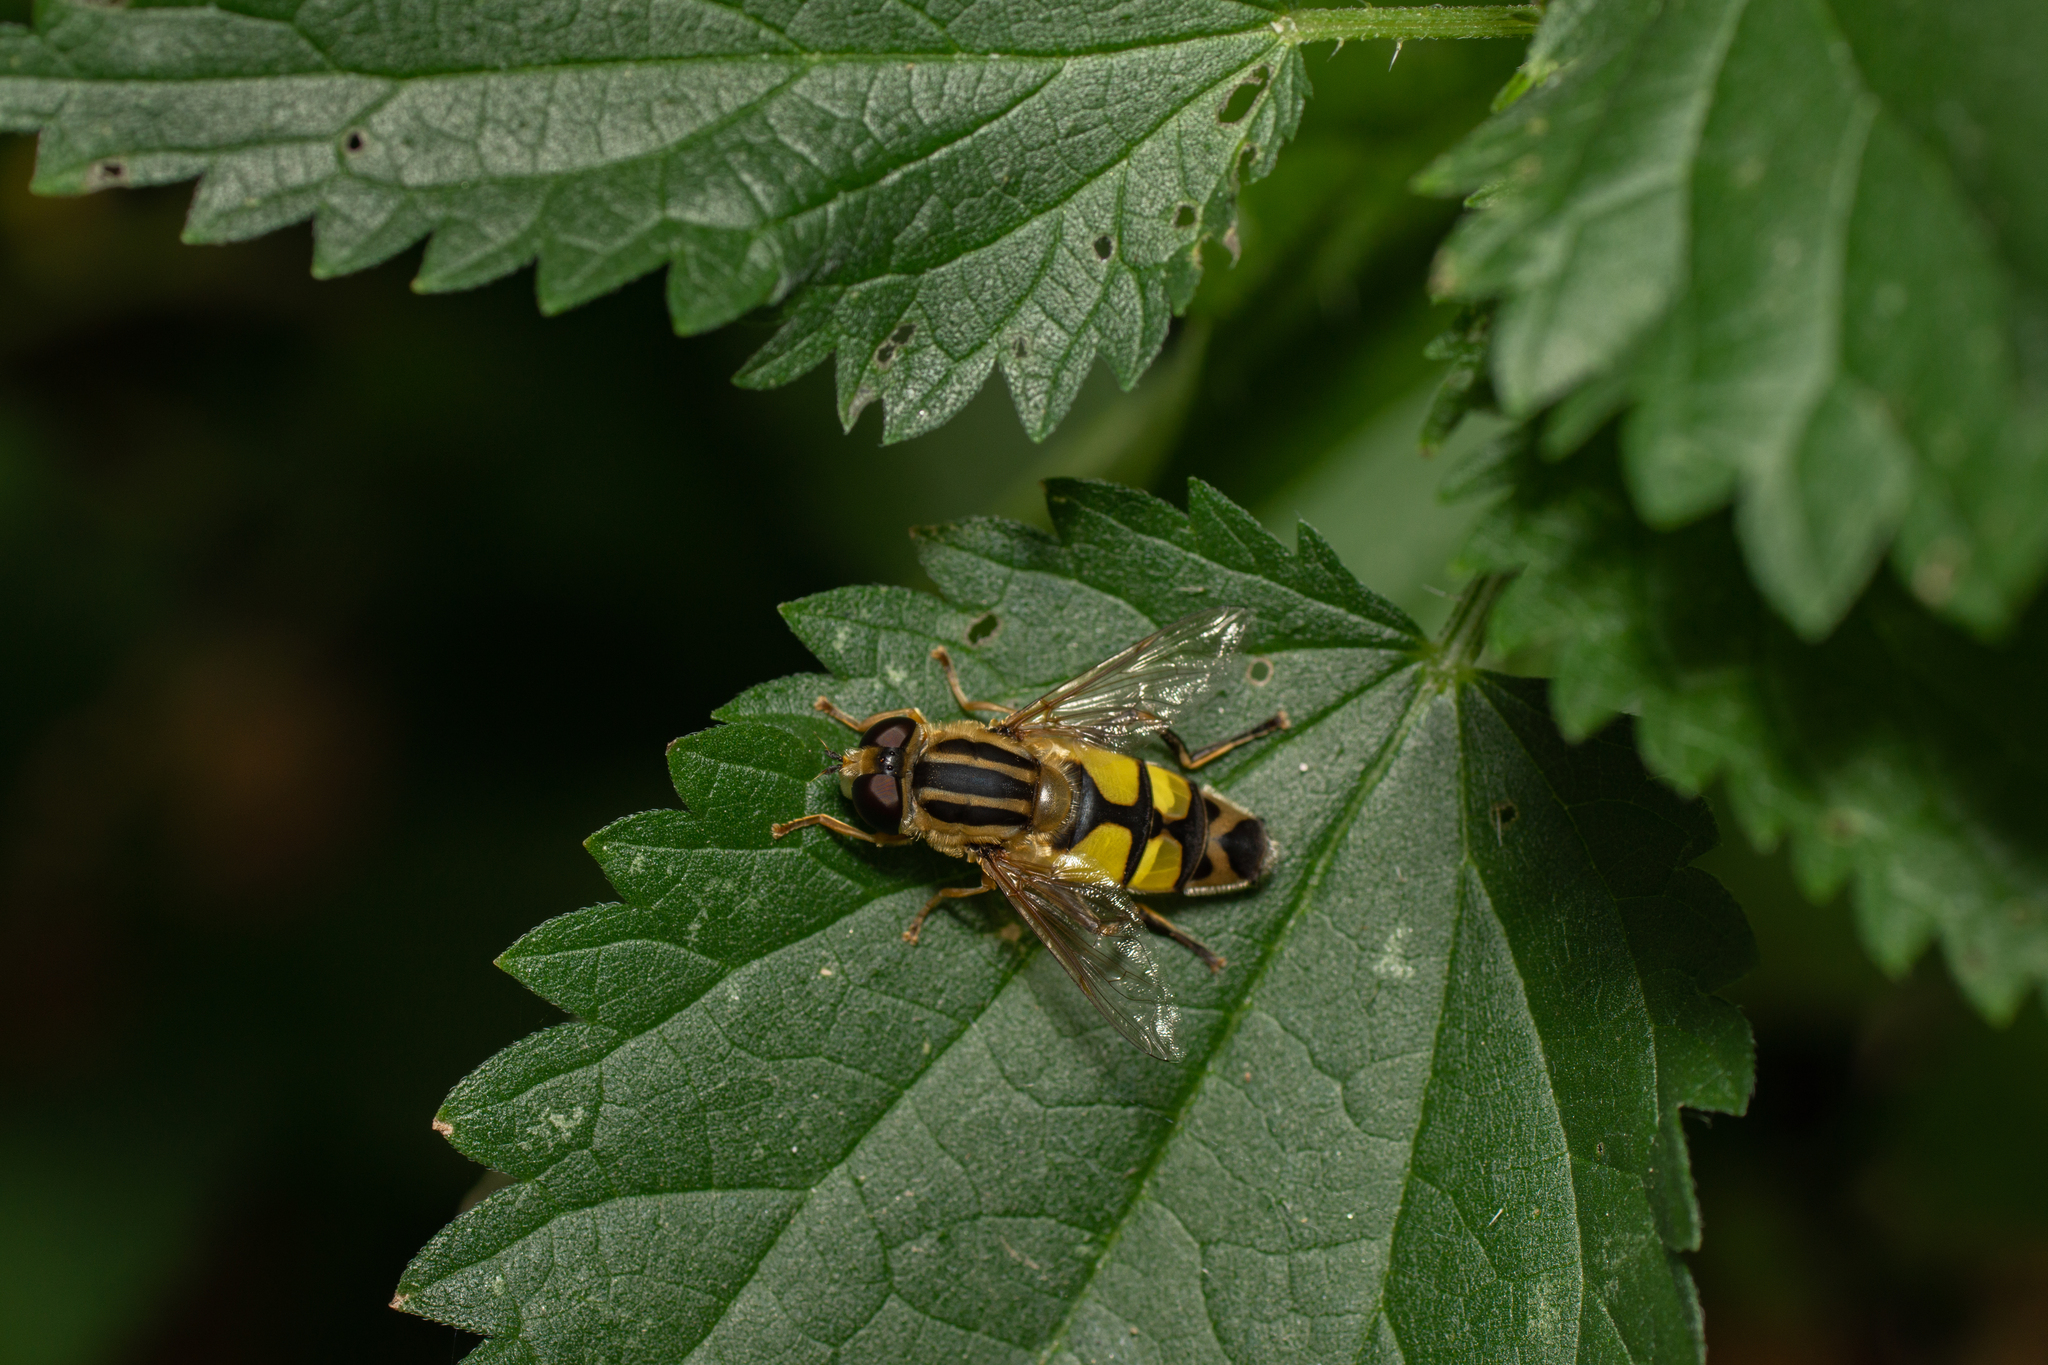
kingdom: Animalia
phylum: Arthropoda
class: Insecta
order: Diptera
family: Syrphidae
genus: Helophilus
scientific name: Helophilus trivittatus
